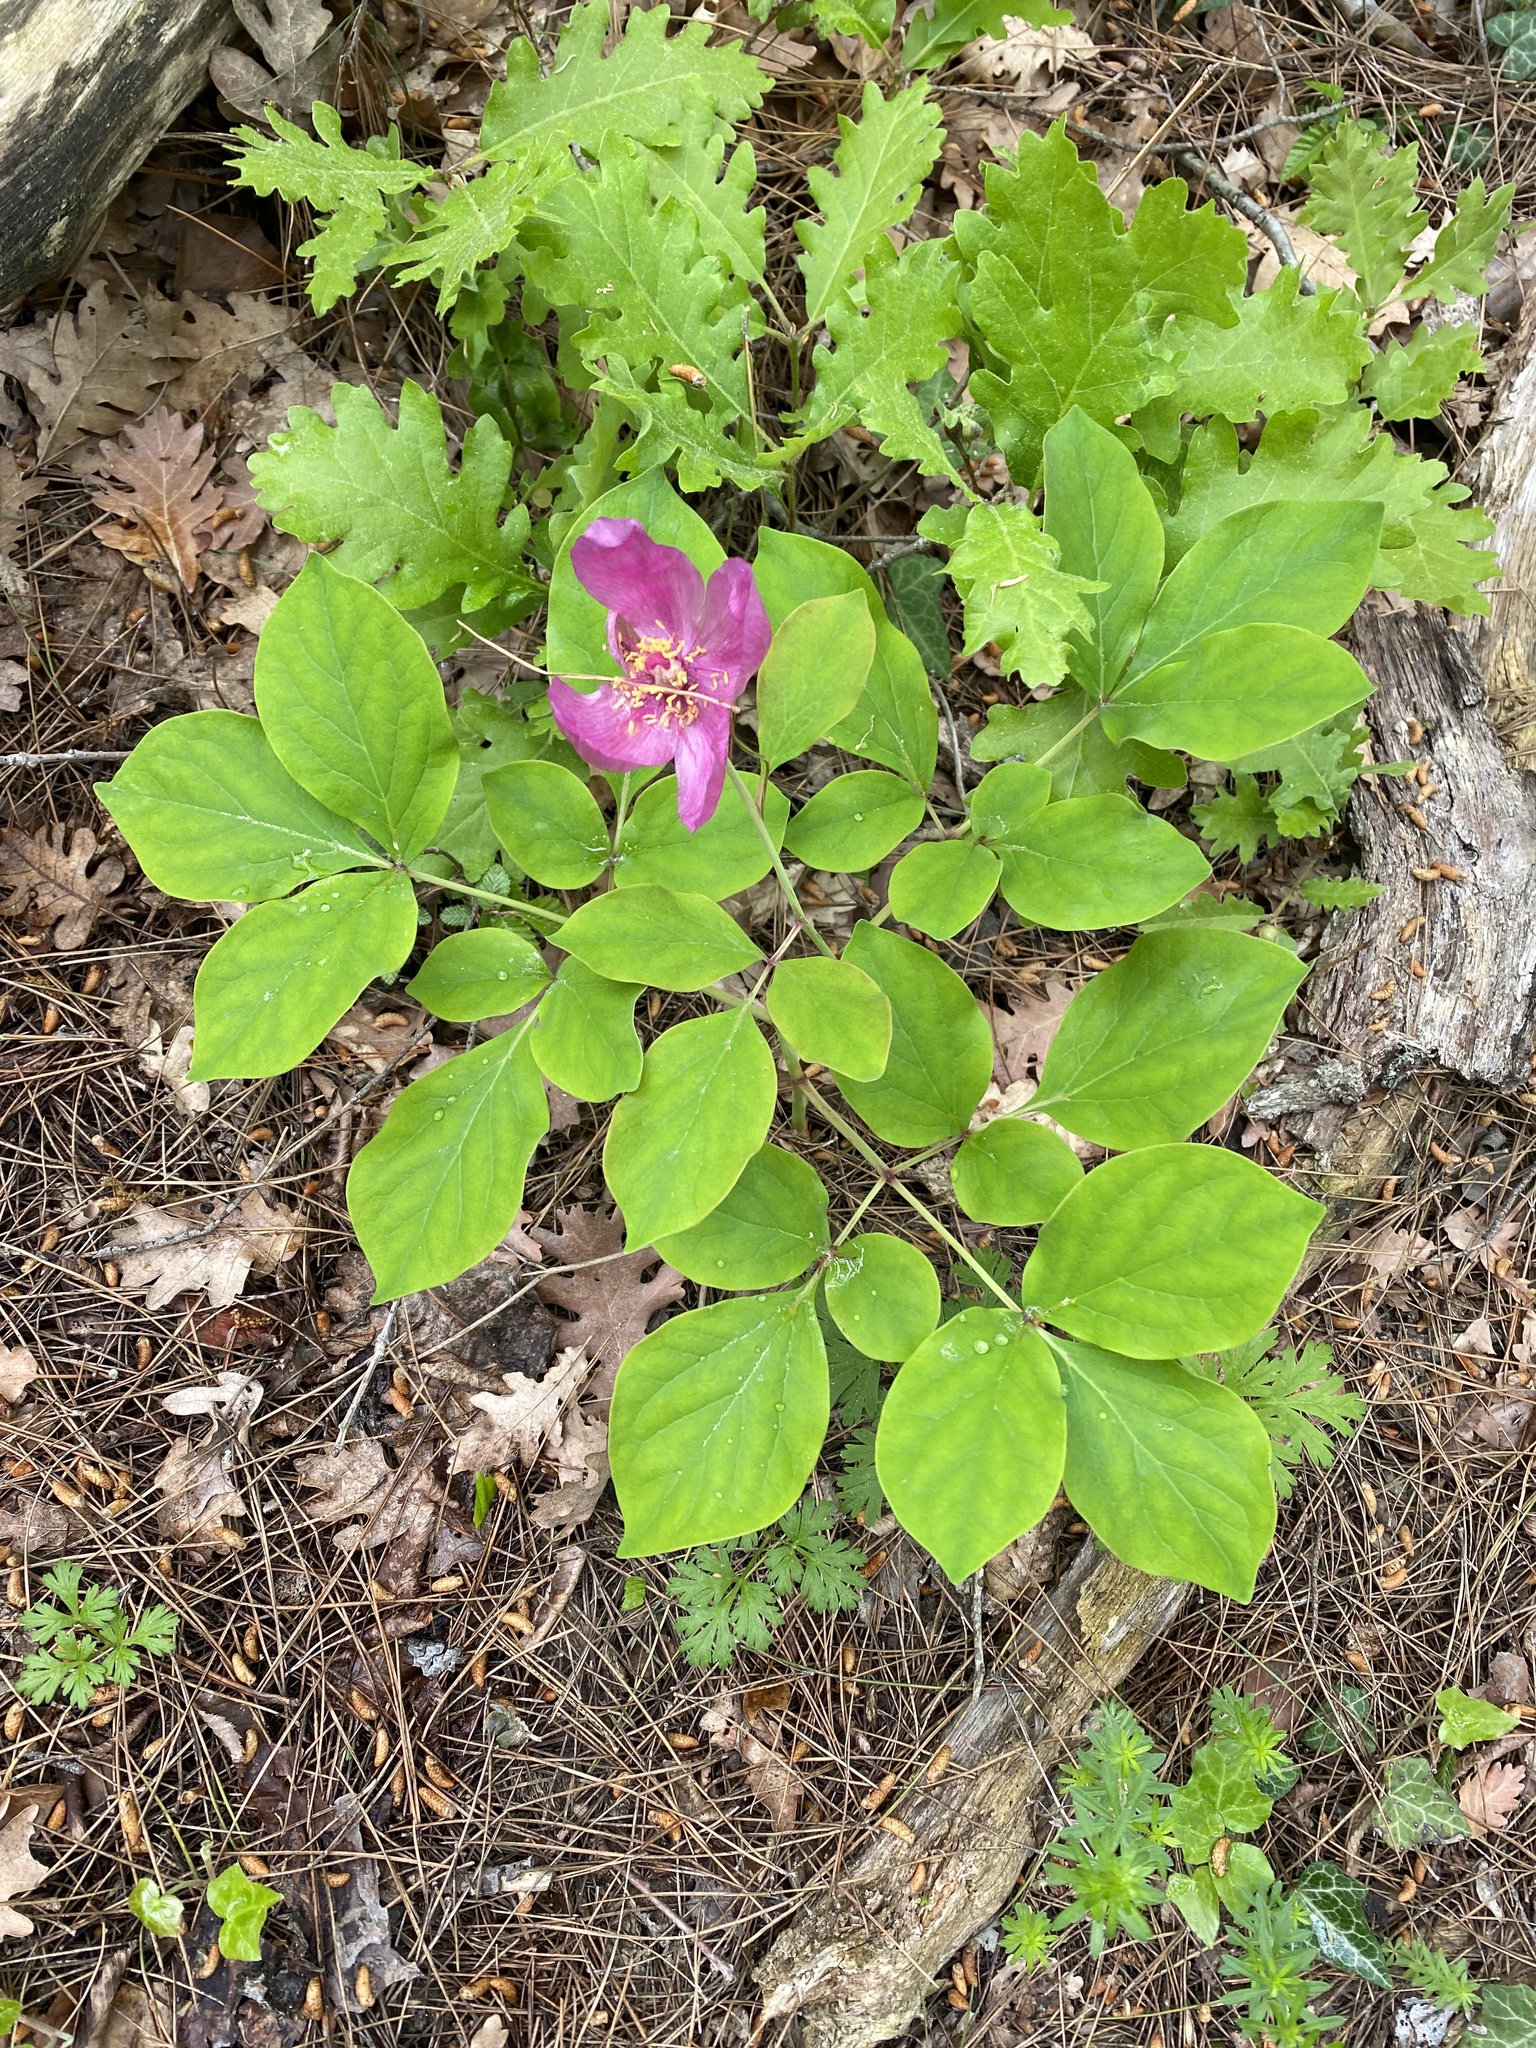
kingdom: Plantae
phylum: Tracheophyta
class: Magnoliopsida
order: Saxifragales
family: Paeoniaceae
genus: Paeonia
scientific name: Paeonia caucasica
